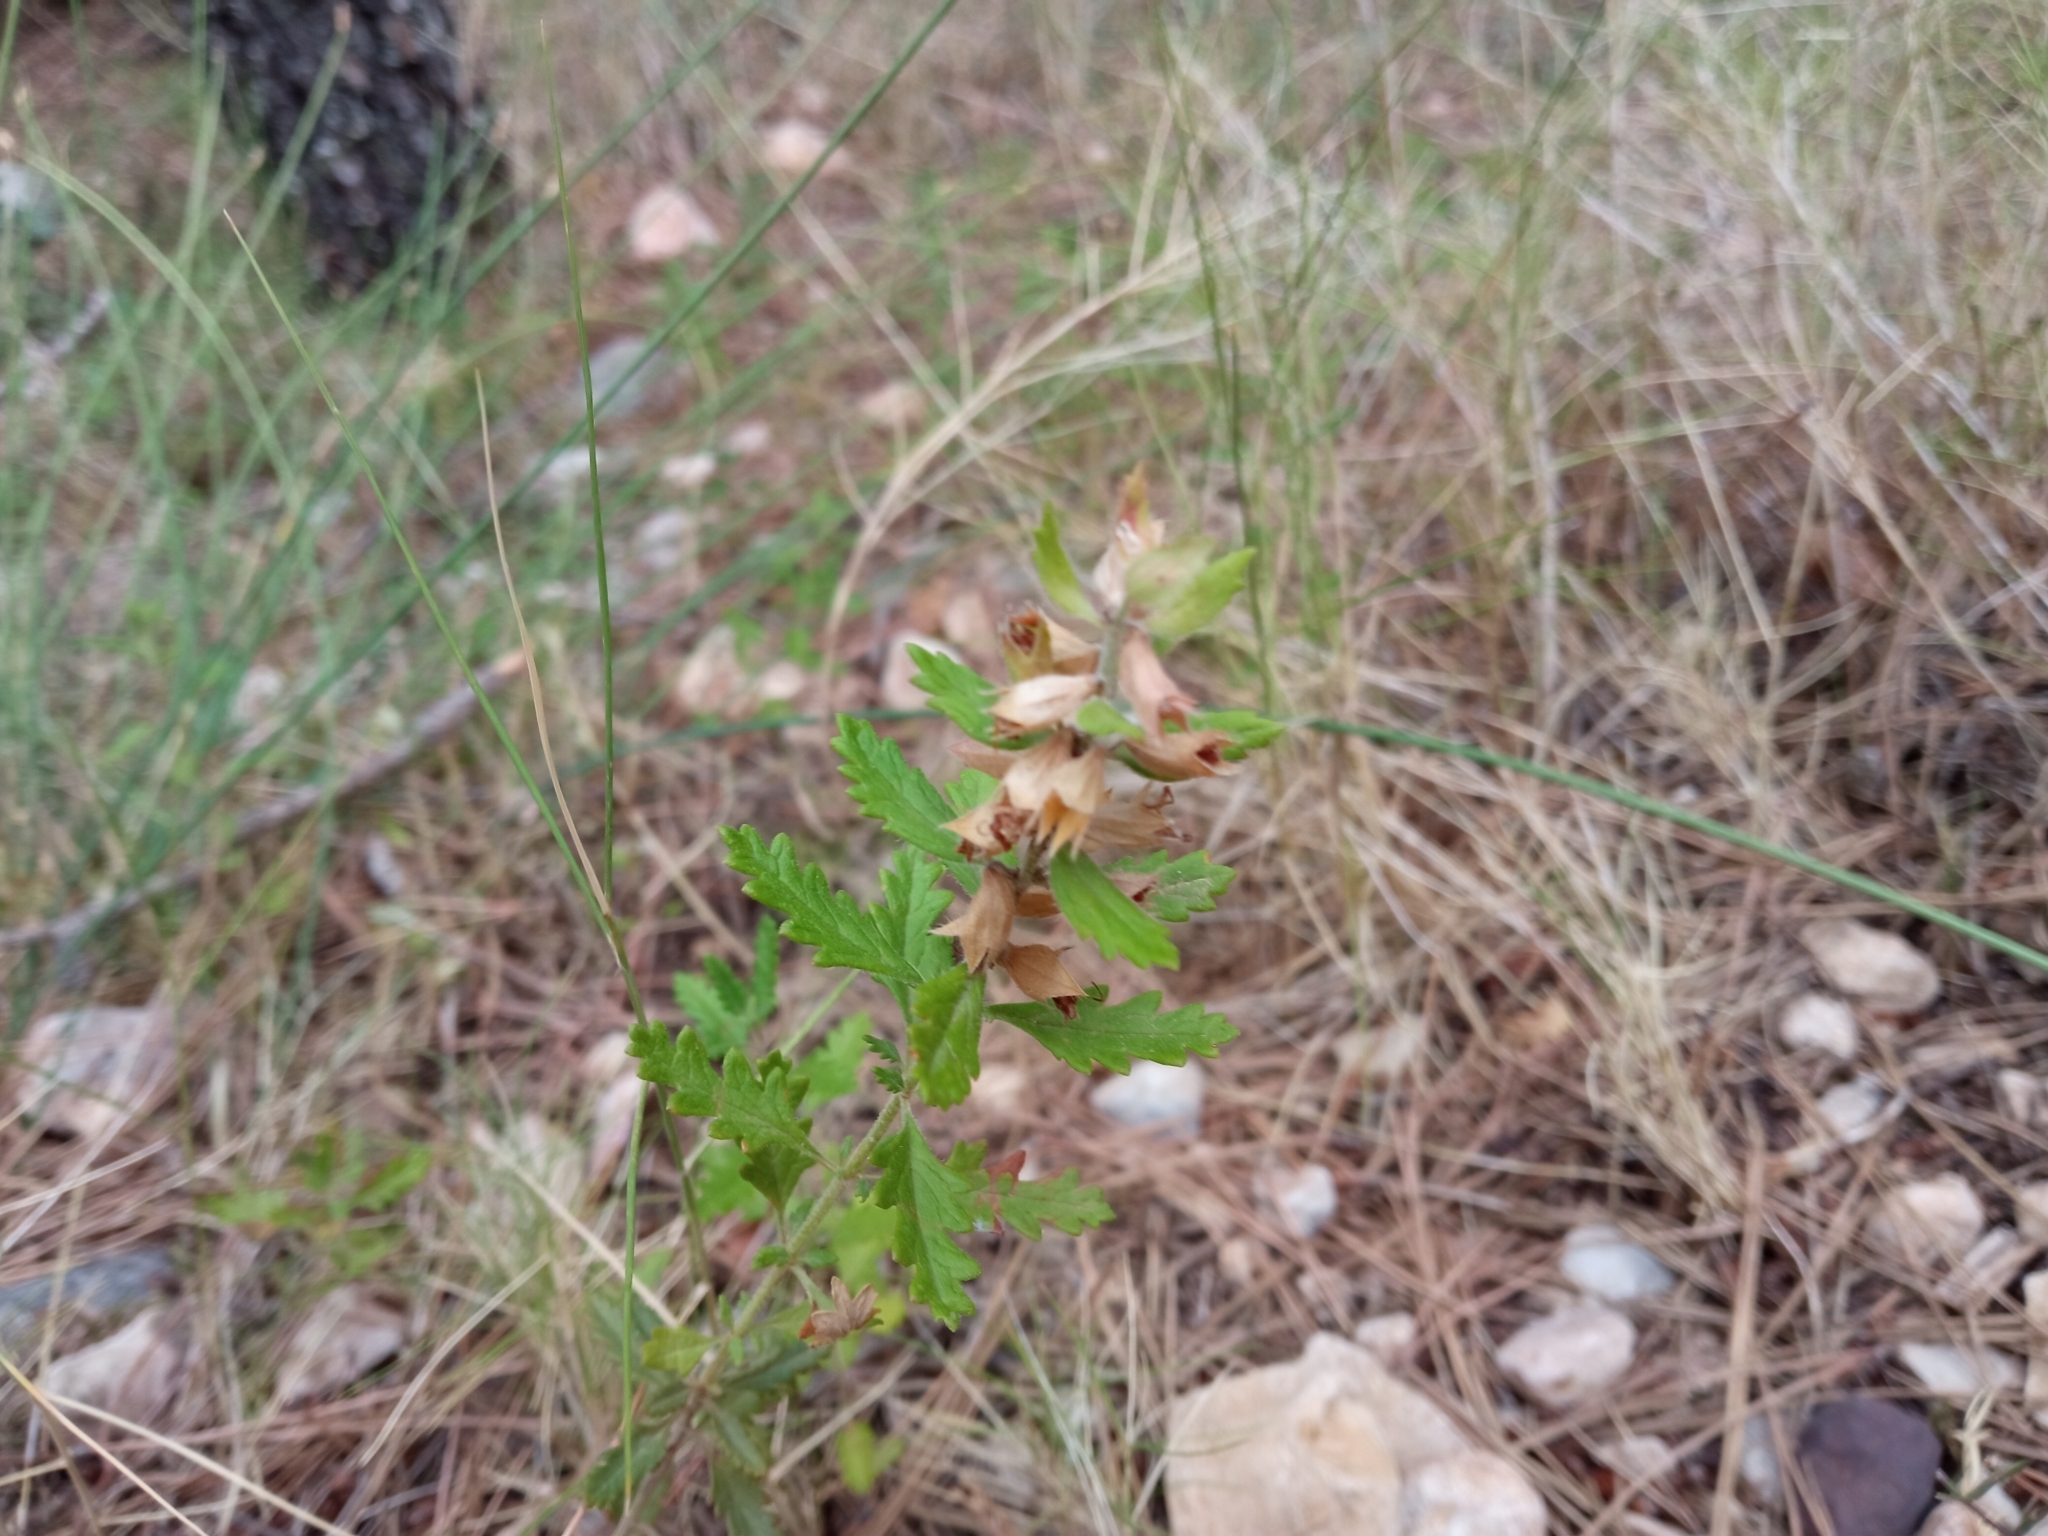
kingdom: Plantae
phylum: Tracheophyta
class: Magnoliopsida
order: Lamiales
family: Lamiaceae
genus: Teucrium
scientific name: Teucrium chamaedrys
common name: Wall germander
